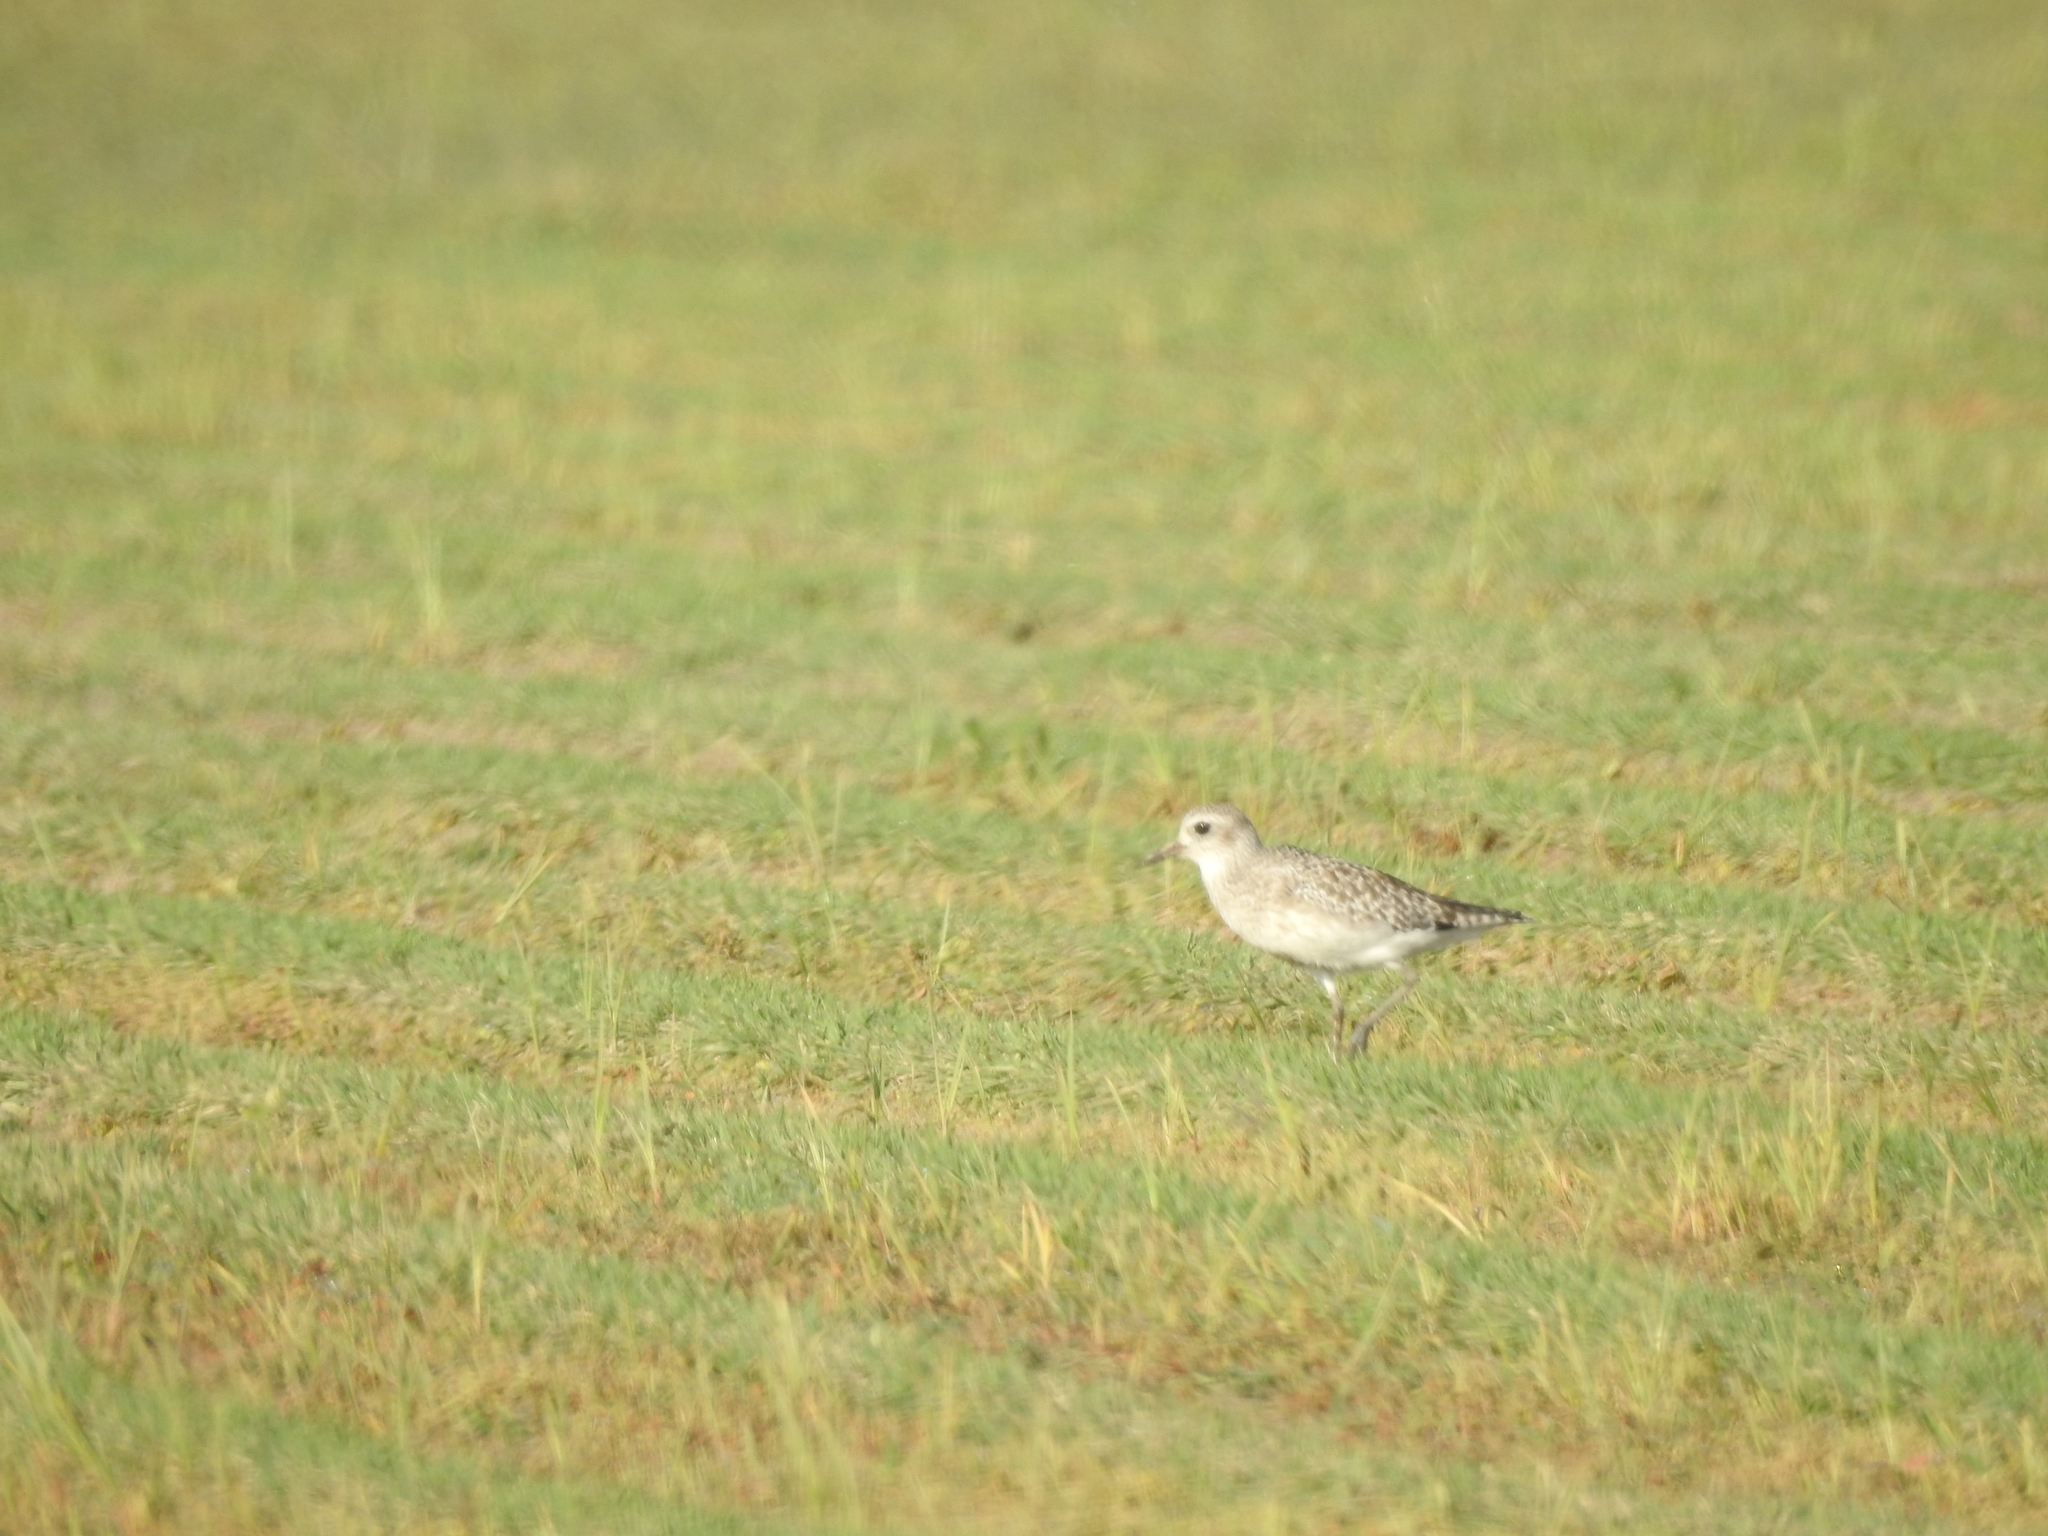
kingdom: Animalia
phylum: Chordata
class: Aves
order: Charadriiformes
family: Charadriidae
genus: Pluvialis
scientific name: Pluvialis squatarola
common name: Grey plover
